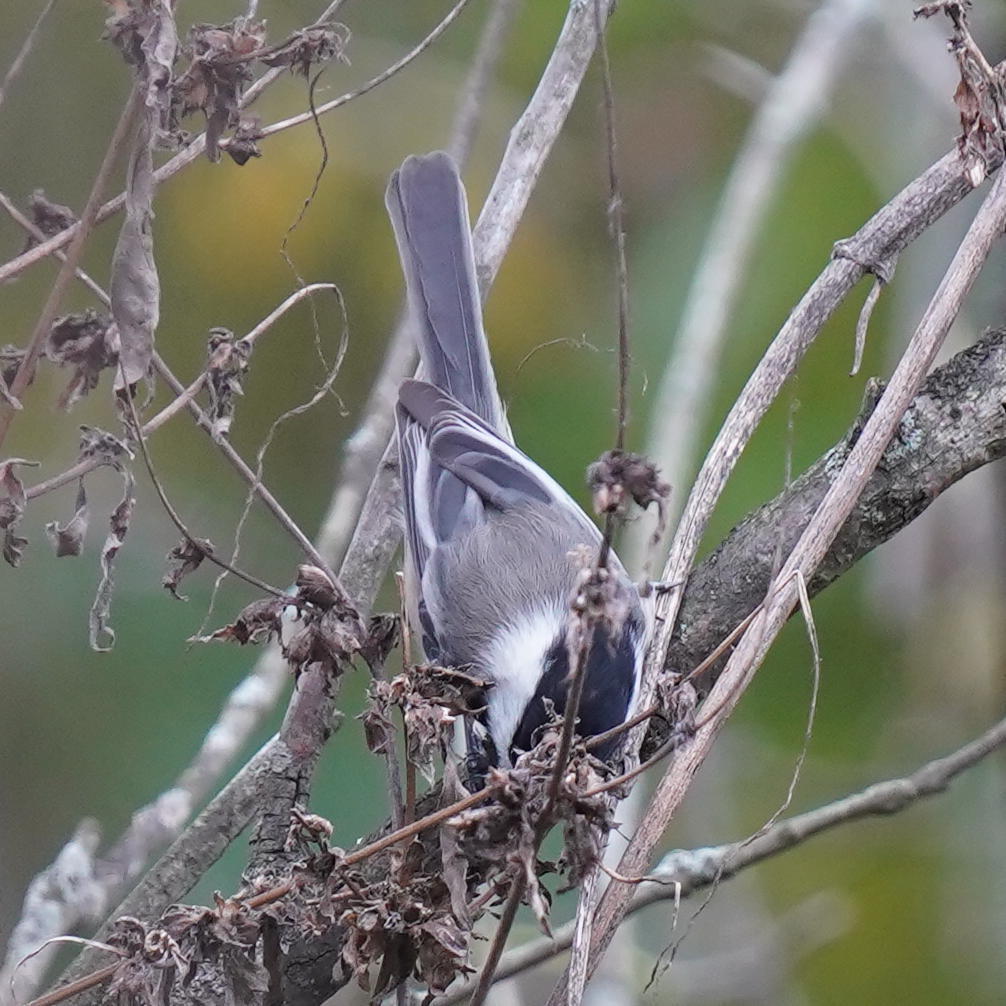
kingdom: Animalia
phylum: Chordata
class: Aves
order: Passeriformes
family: Paridae
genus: Poecile
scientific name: Poecile atricapillus
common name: Black-capped chickadee
